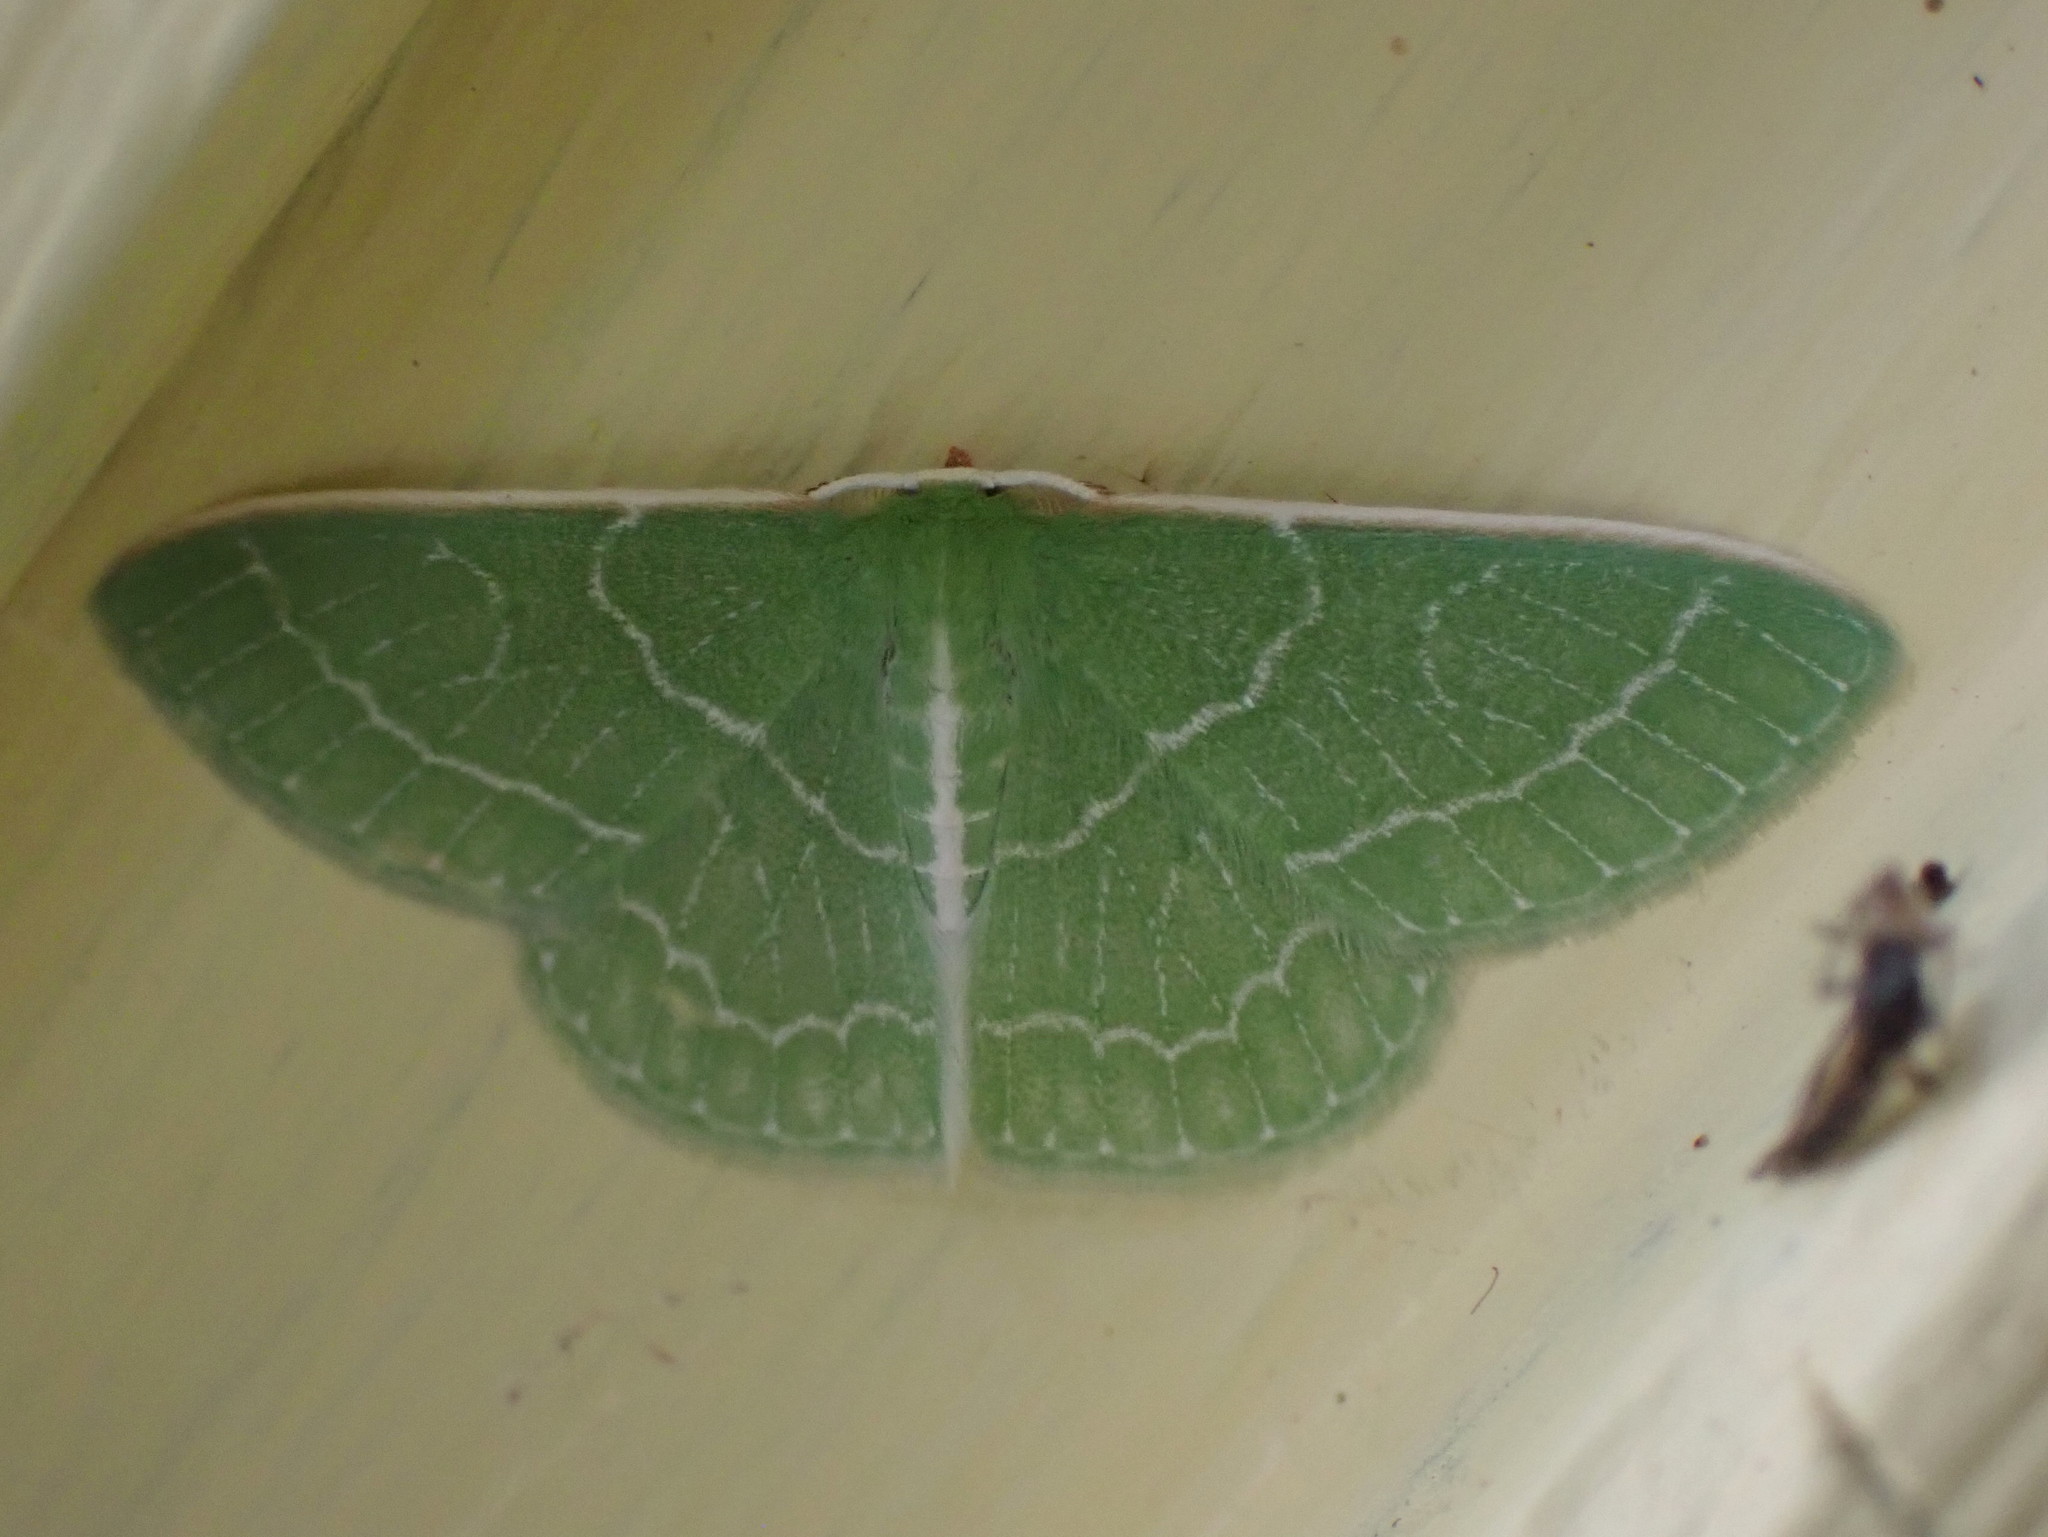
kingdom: Animalia
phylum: Arthropoda
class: Insecta
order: Lepidoptera
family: Geometridae
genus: Synchlora
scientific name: Synchlora aerata
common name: Wavy-lined emerald
